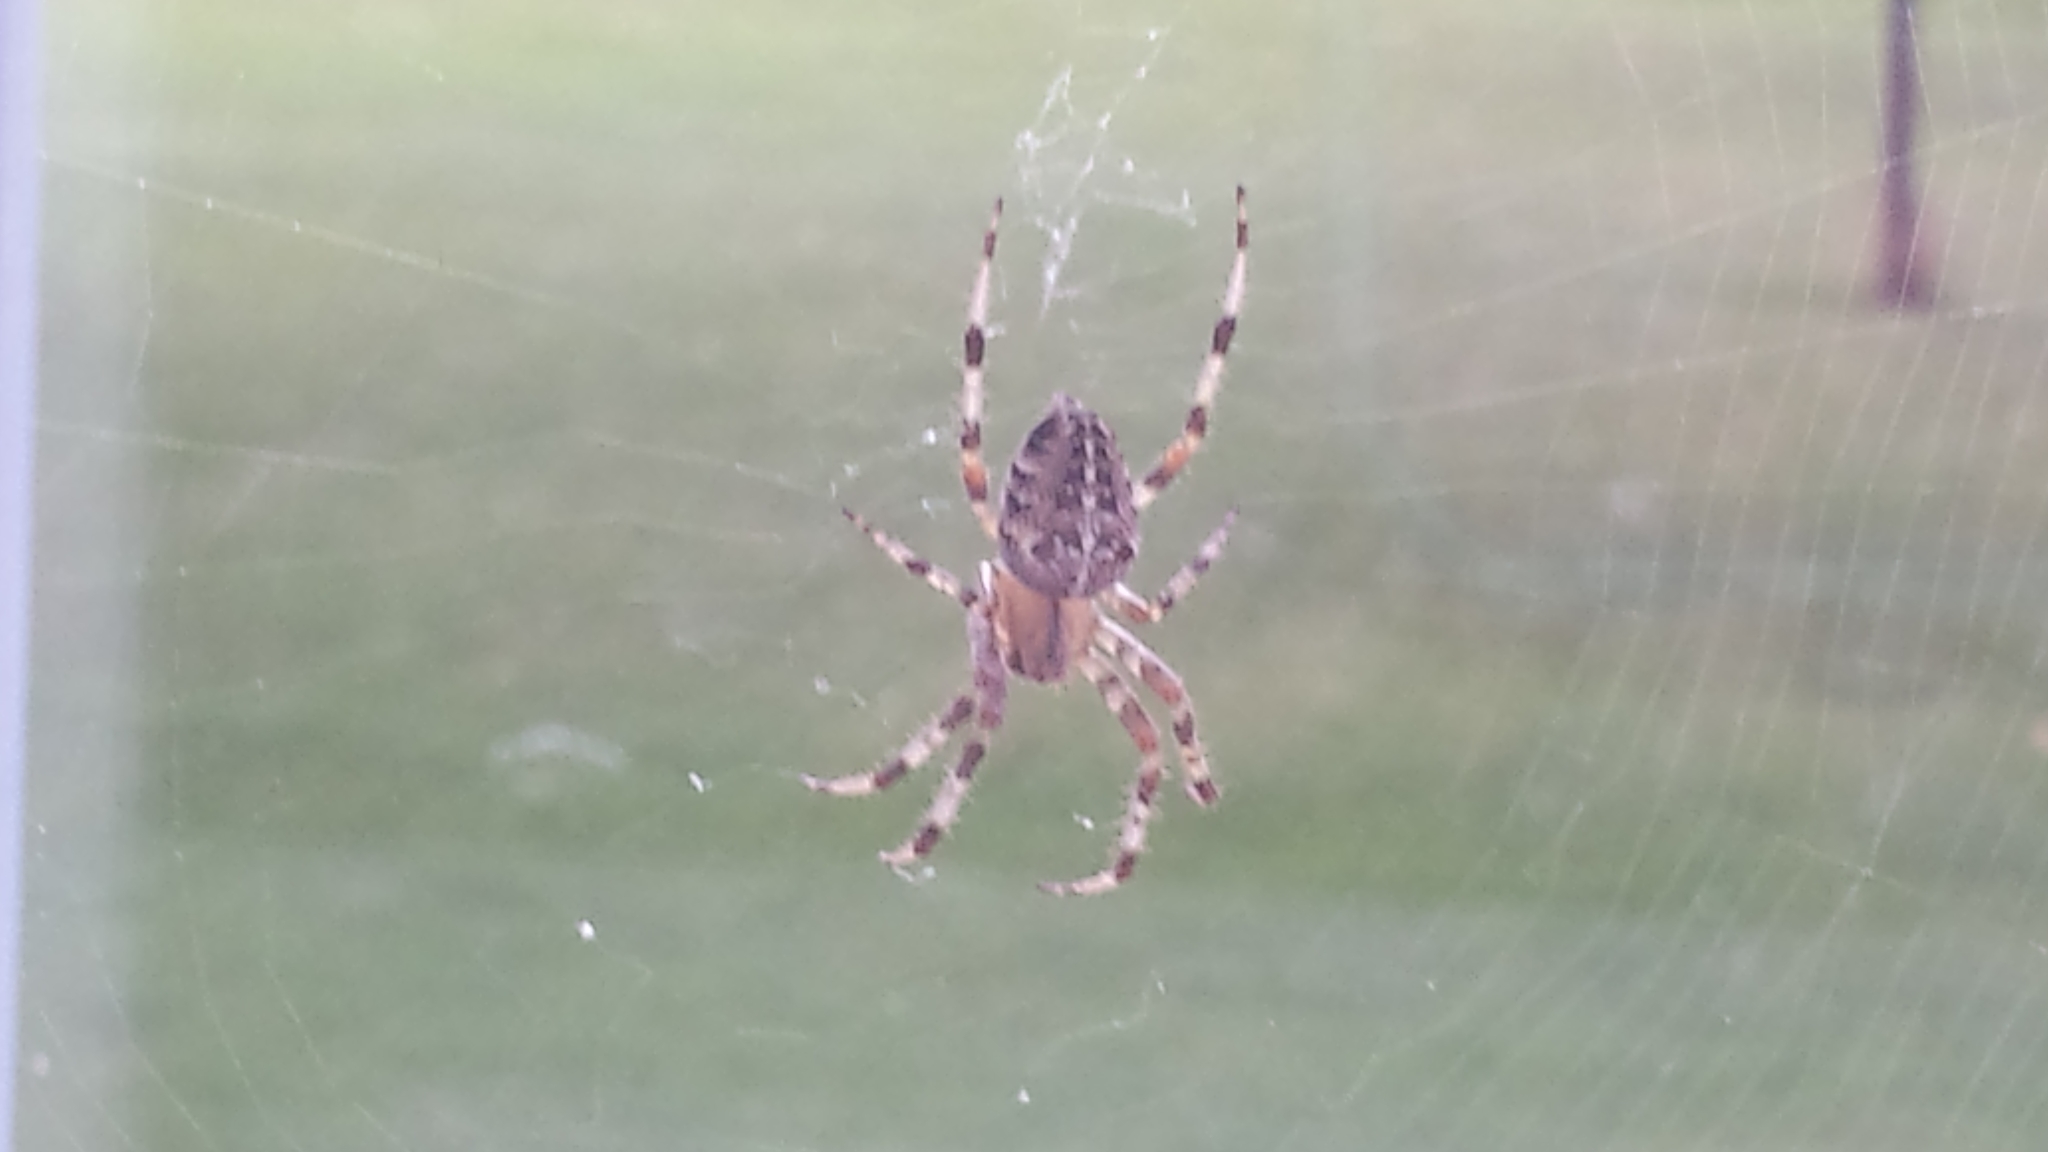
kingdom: Animalia
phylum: Arthropoda
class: Arachnida
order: Araneae
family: Araneidae
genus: Araneus
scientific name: Araneus diadematus
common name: Cross orbweaver
